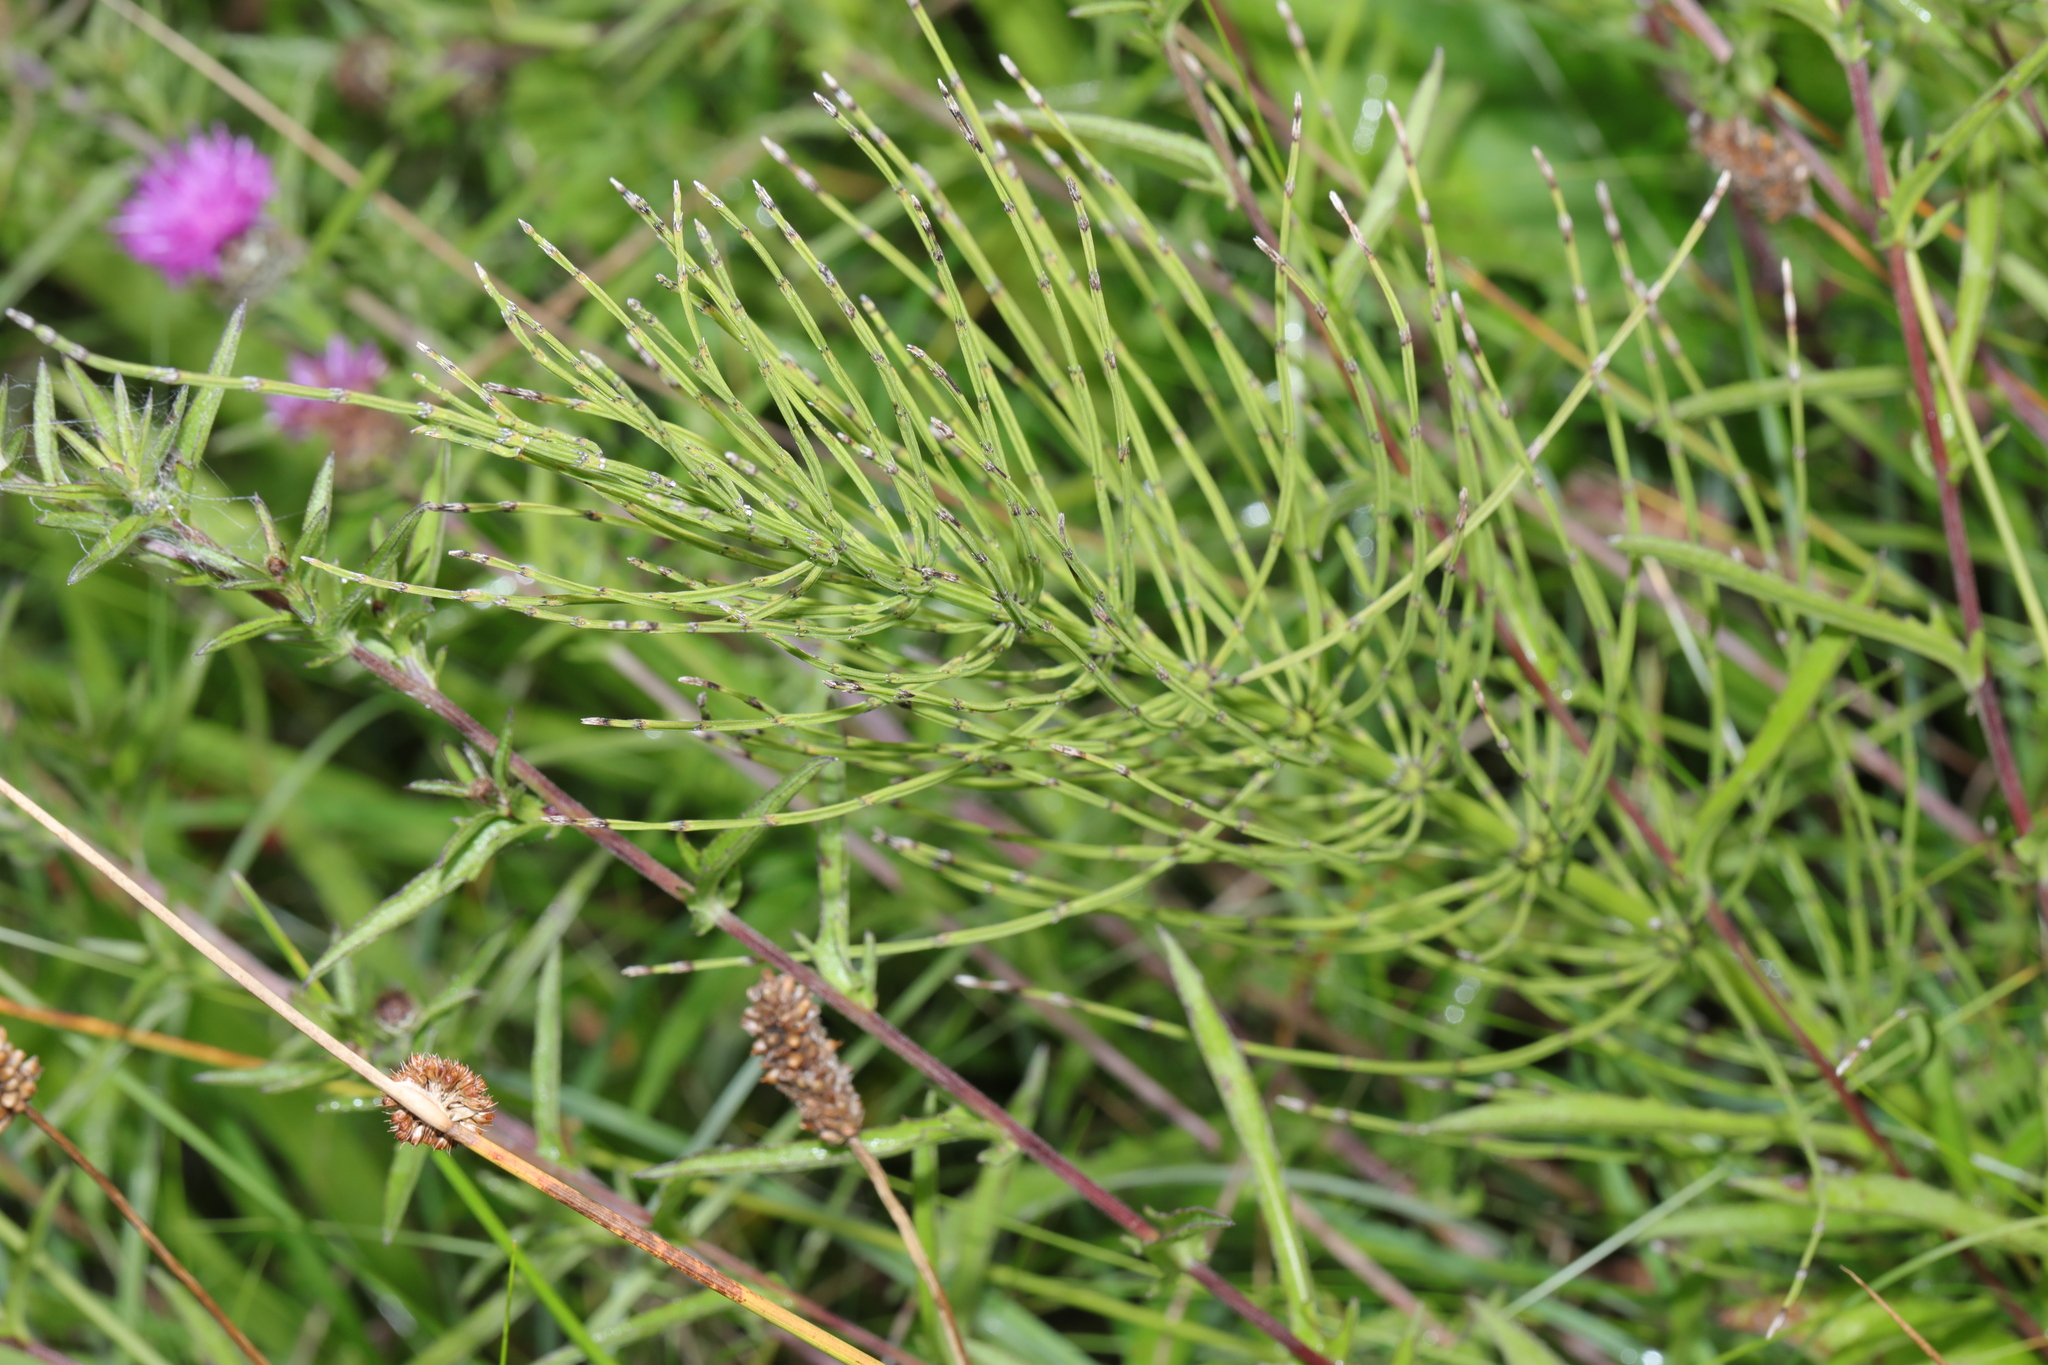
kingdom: Plantae
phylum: Tracheophyta
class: Polypodiopsida
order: Equisetales
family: Equisetaceae
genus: Equisetum
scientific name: Equisetum arvense
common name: Field horsetail
